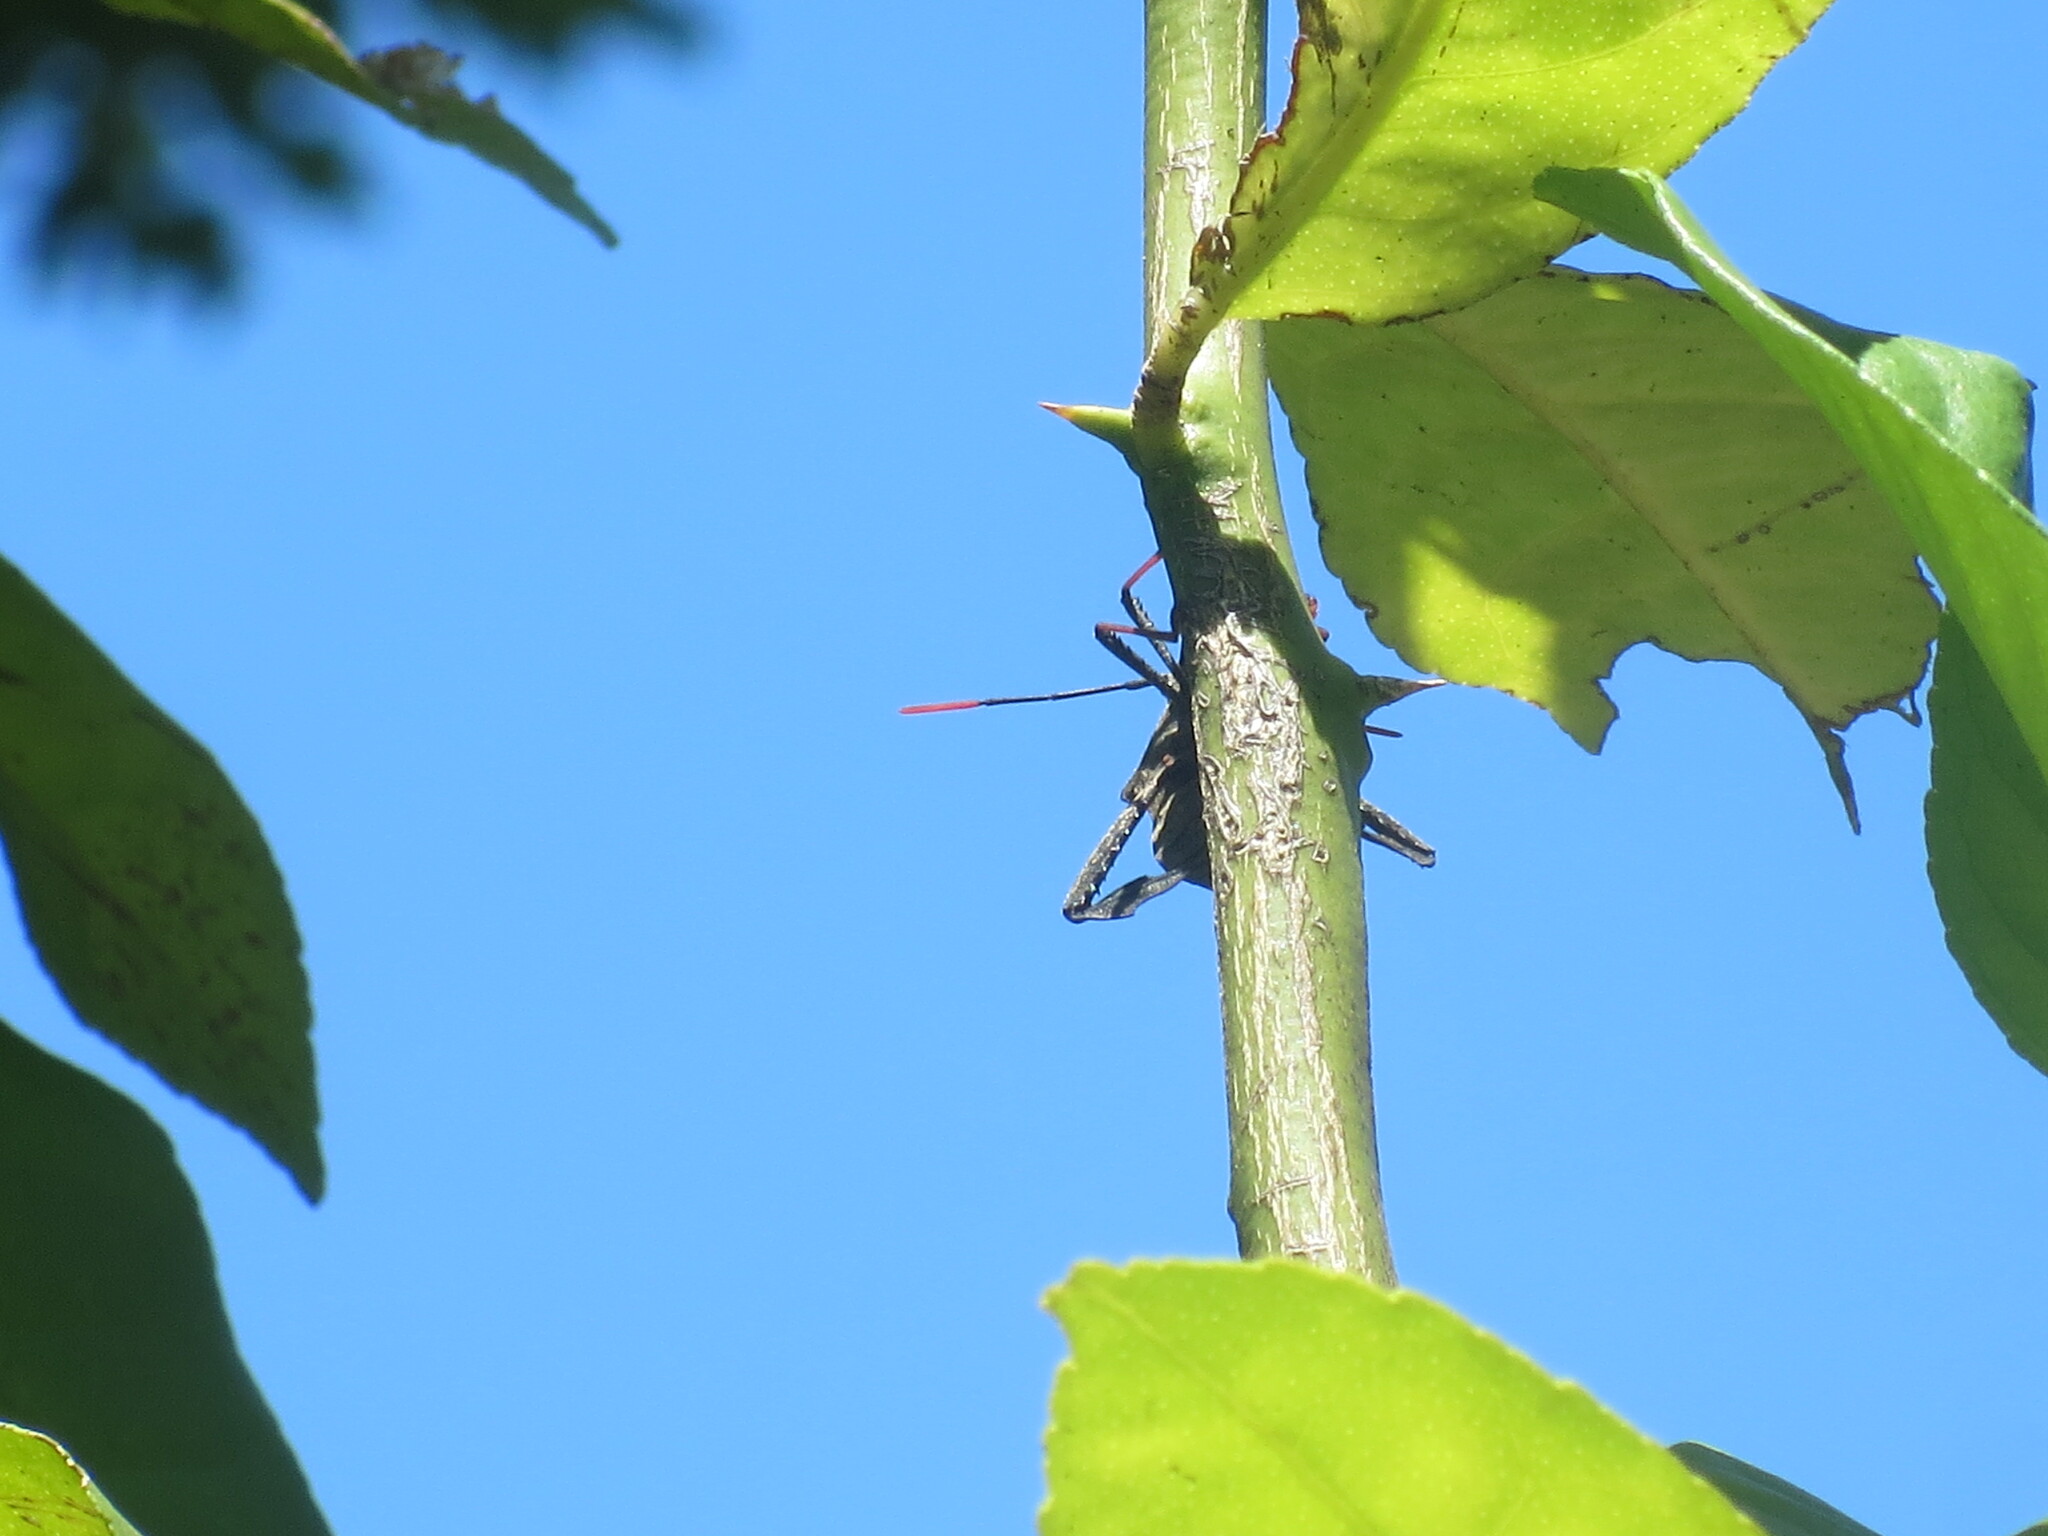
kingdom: Animalia
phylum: Arthropoda
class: Insecta
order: Hemiptera
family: Coreidae
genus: Acanthocephala
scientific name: Acanthocephala terminalis
